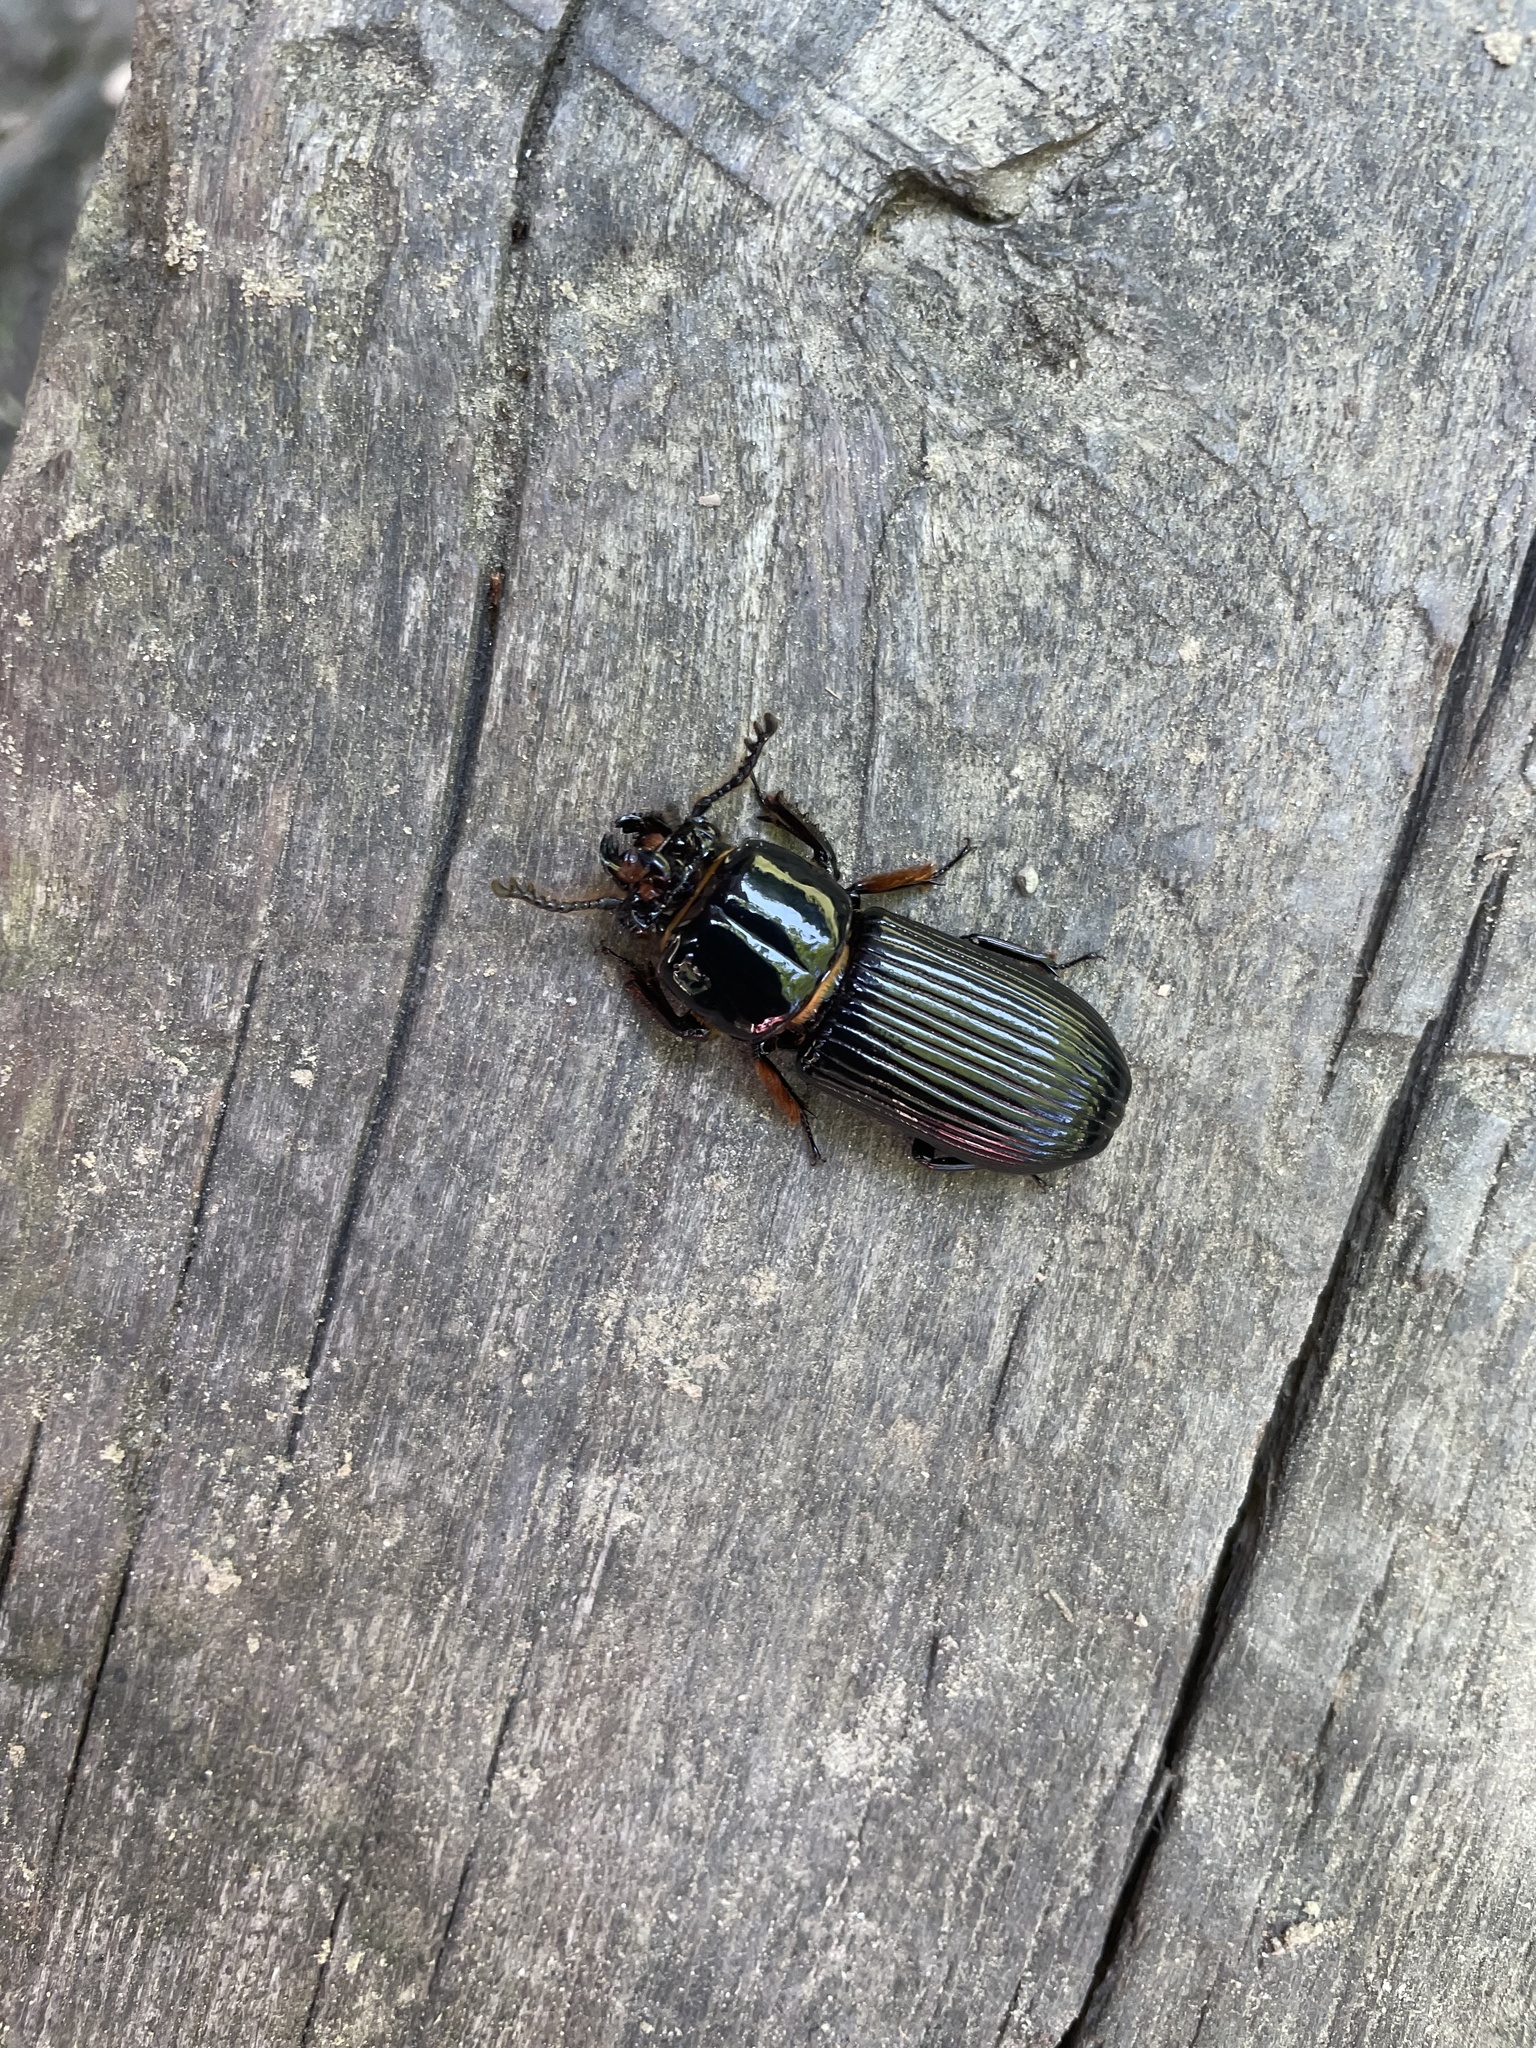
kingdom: Animalia
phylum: Arthropoda
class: Insecta
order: Coleoptera
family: Passalidae
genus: Odontotaenius
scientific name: Odontotaenius disjunctus
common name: Patent leather beetle
